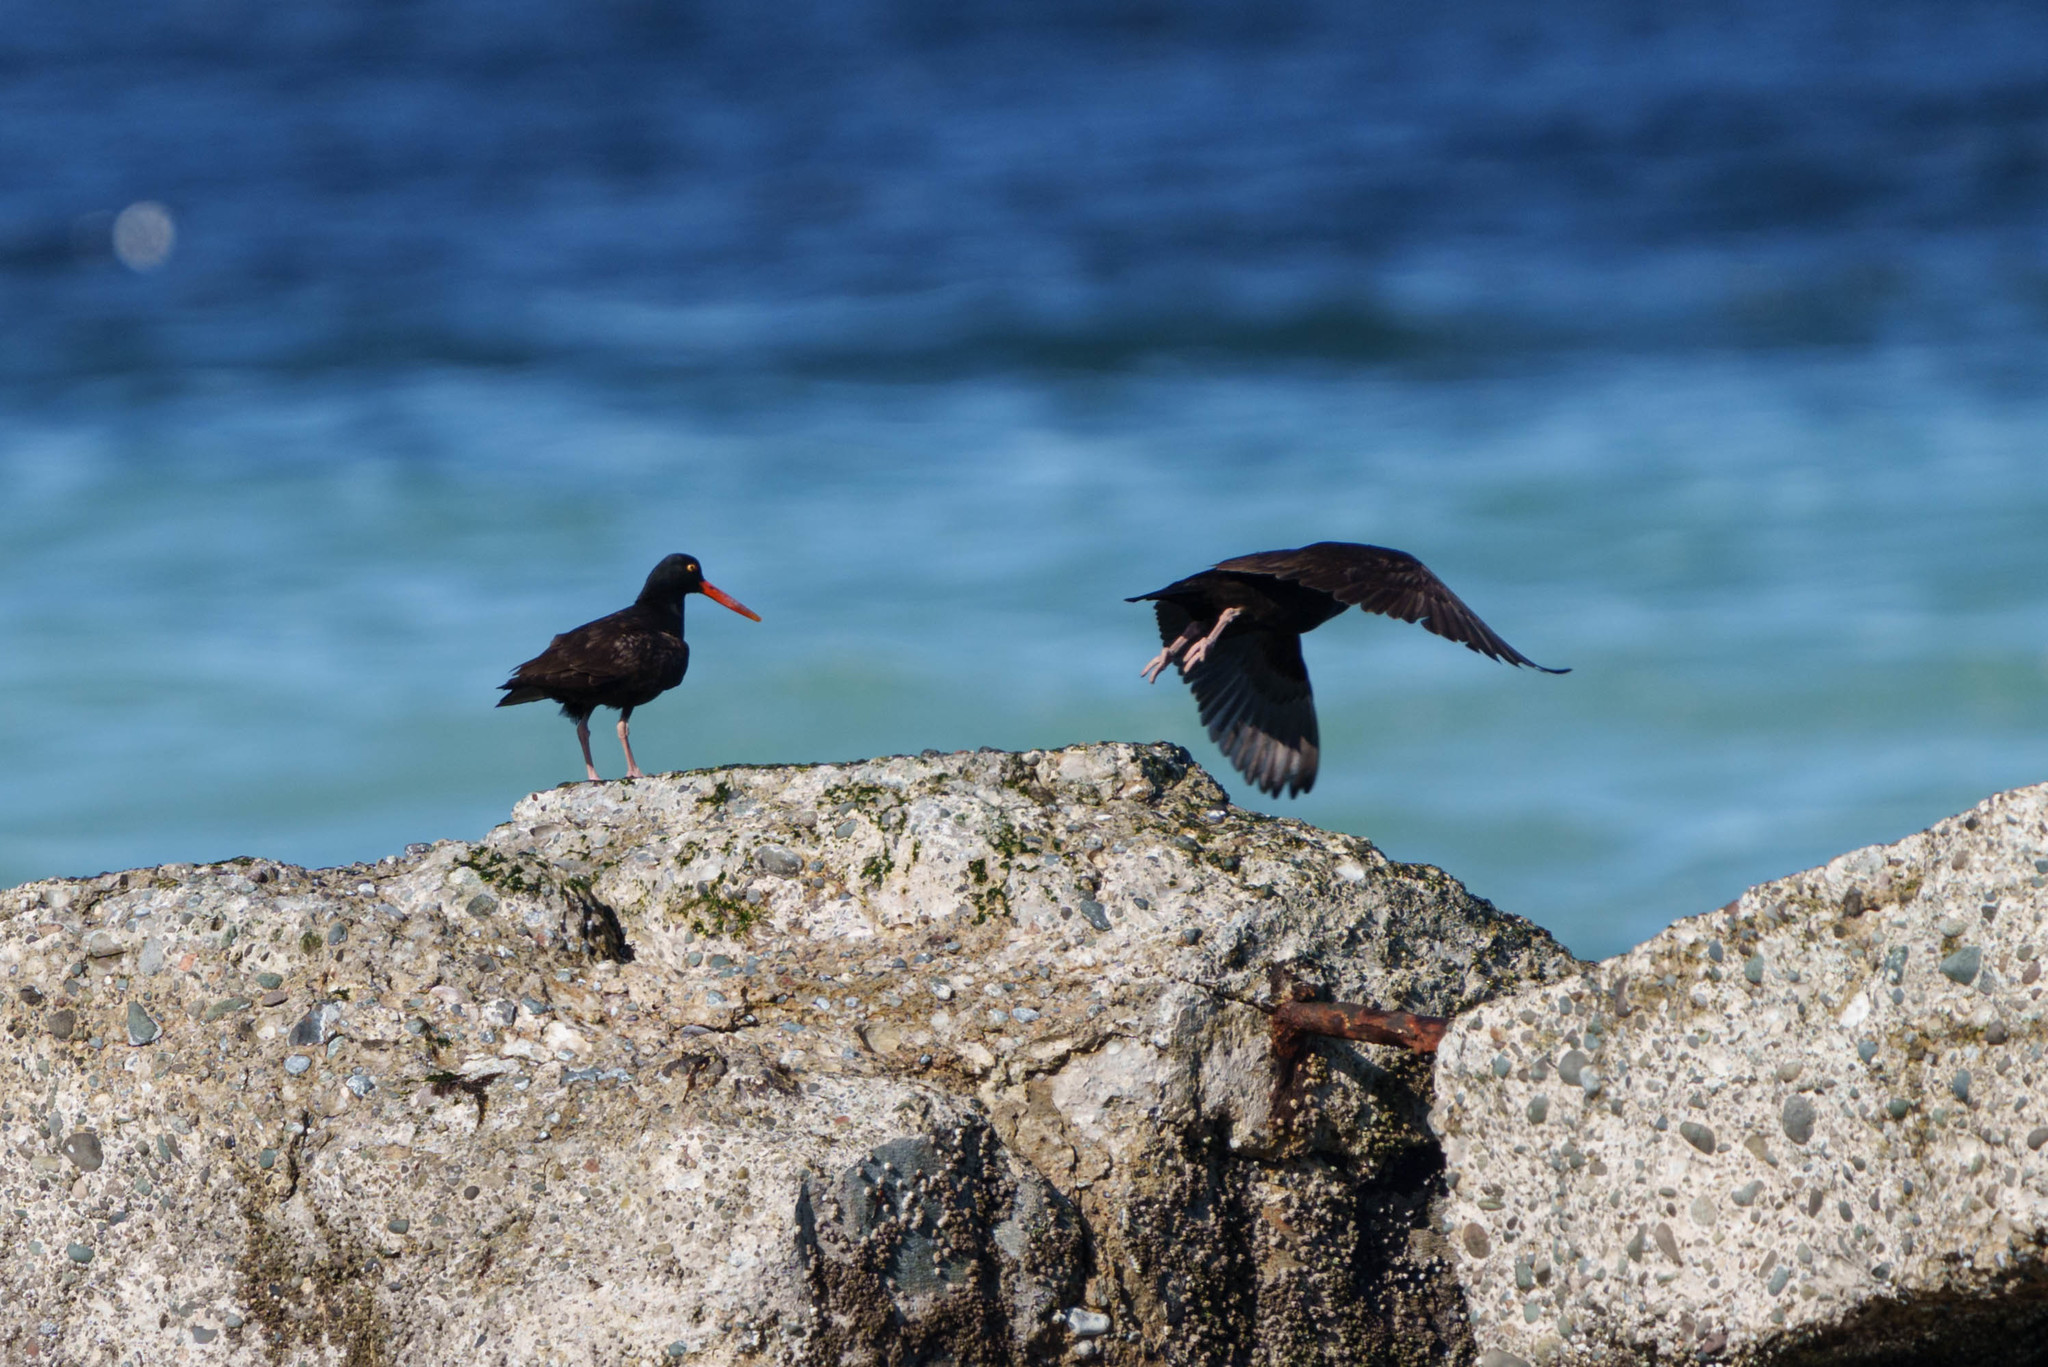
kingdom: Animalia
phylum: Chordata
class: Aves
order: Charadriiformes
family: Haematopodidae
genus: Haematopus
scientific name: Haematopus bachmani
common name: Black oystercatcher
